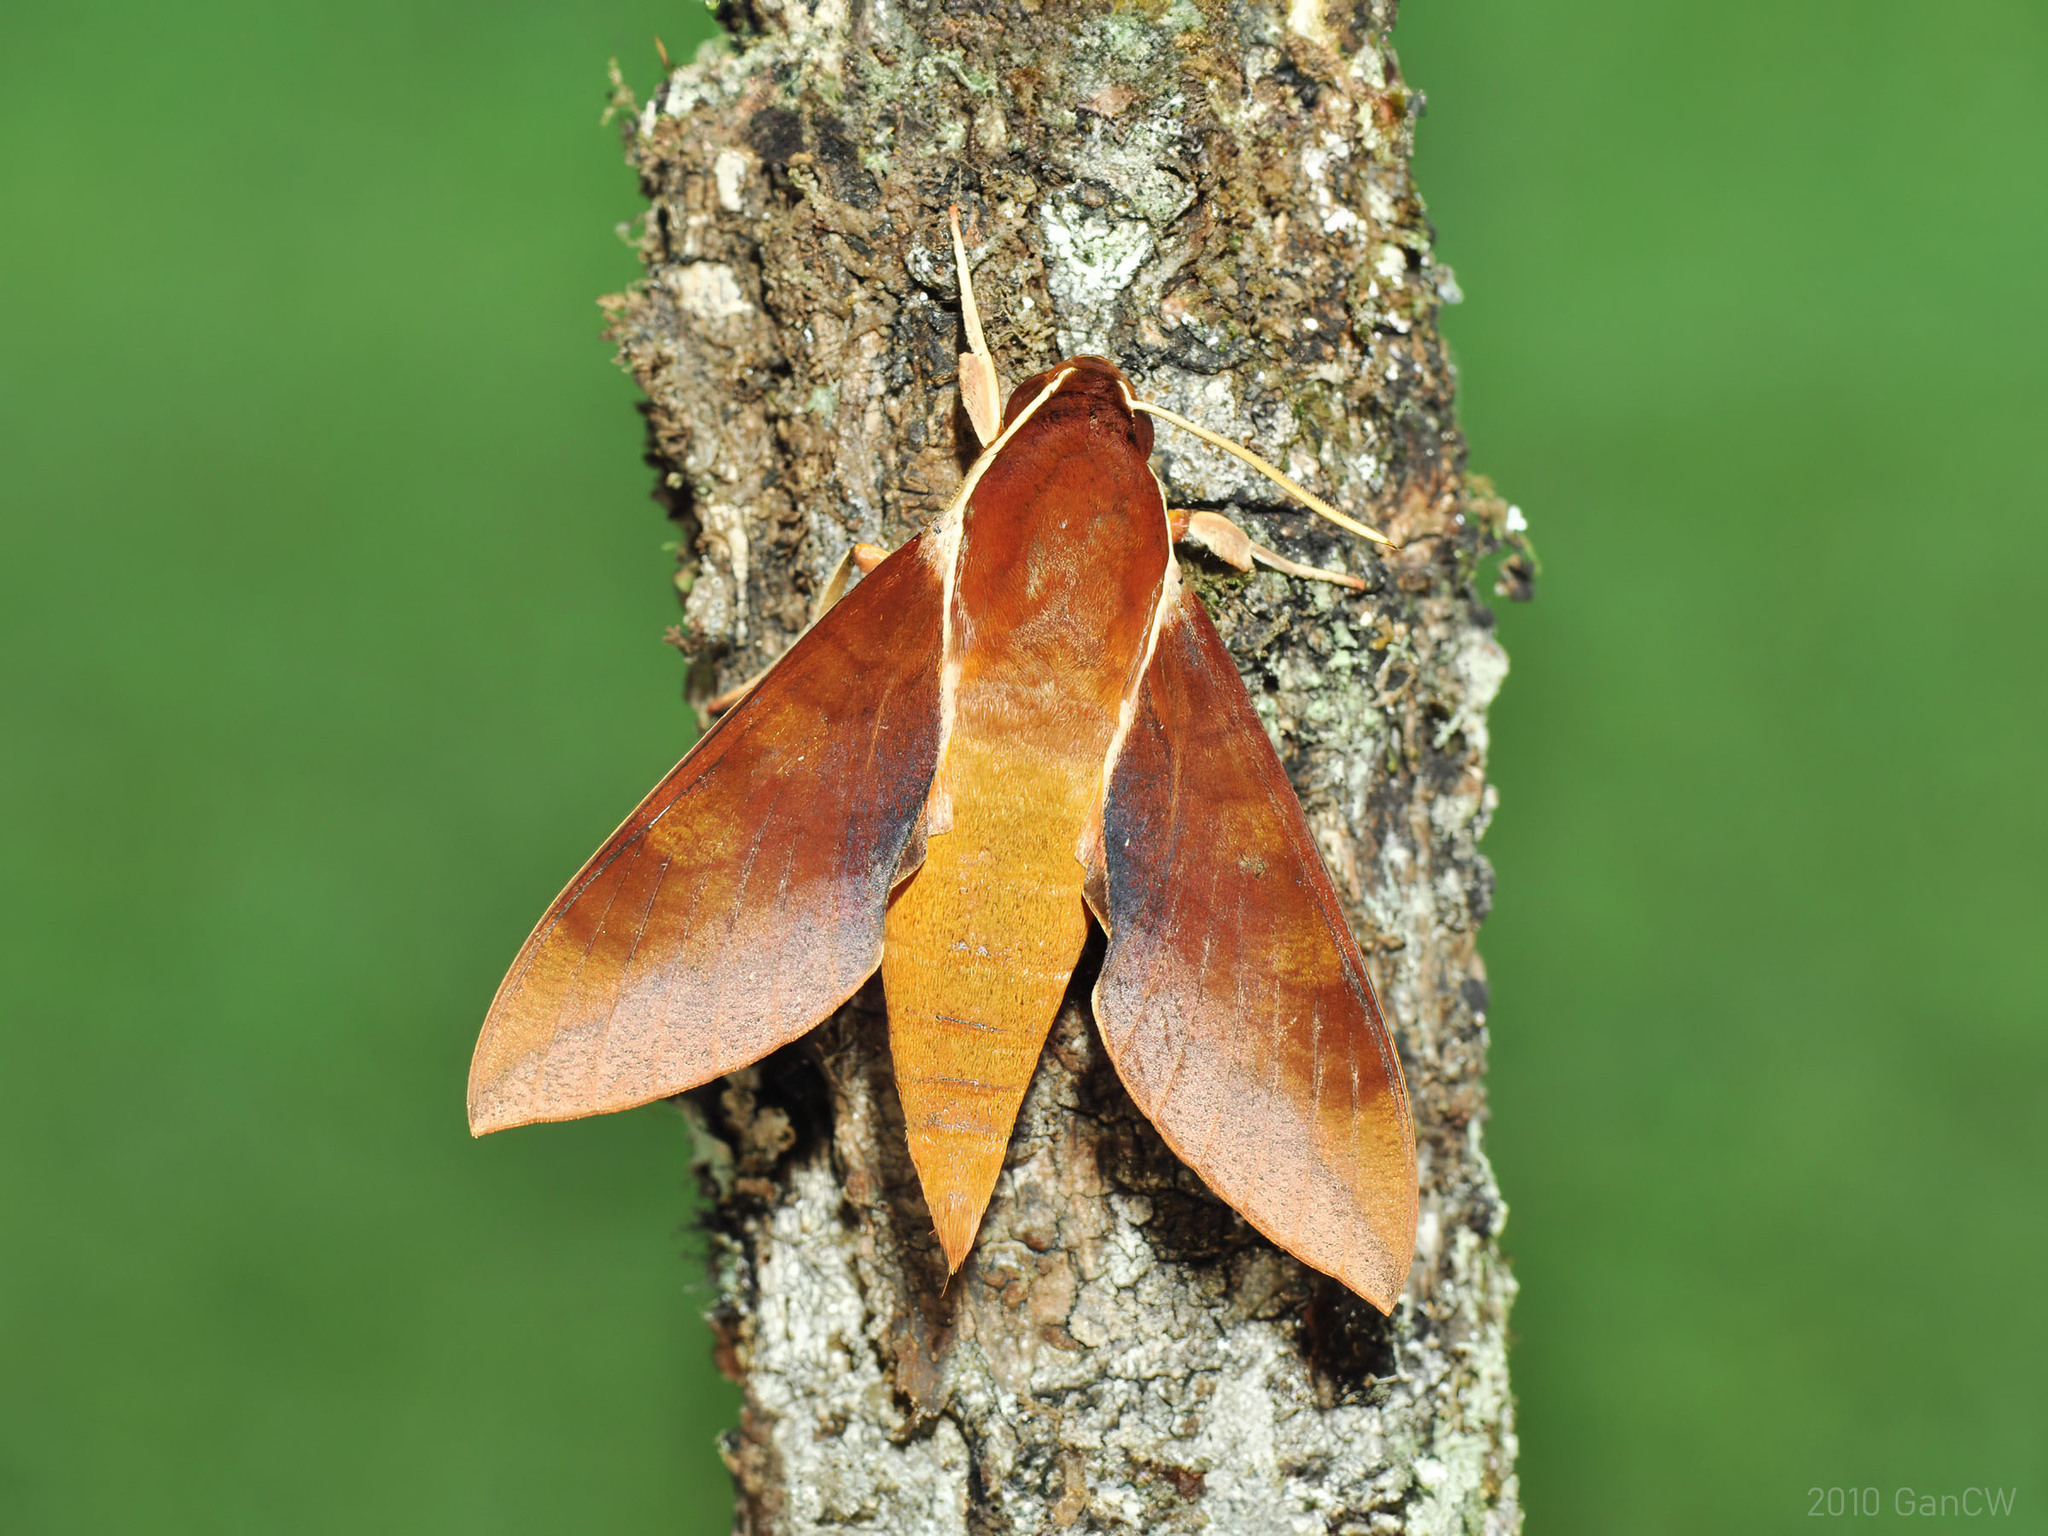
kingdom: Animalia
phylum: Arthropoda
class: Insecta
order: Lepidoptera
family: Sphingidae
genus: Gnathothlibus
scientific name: Gnathothlibus erotus
